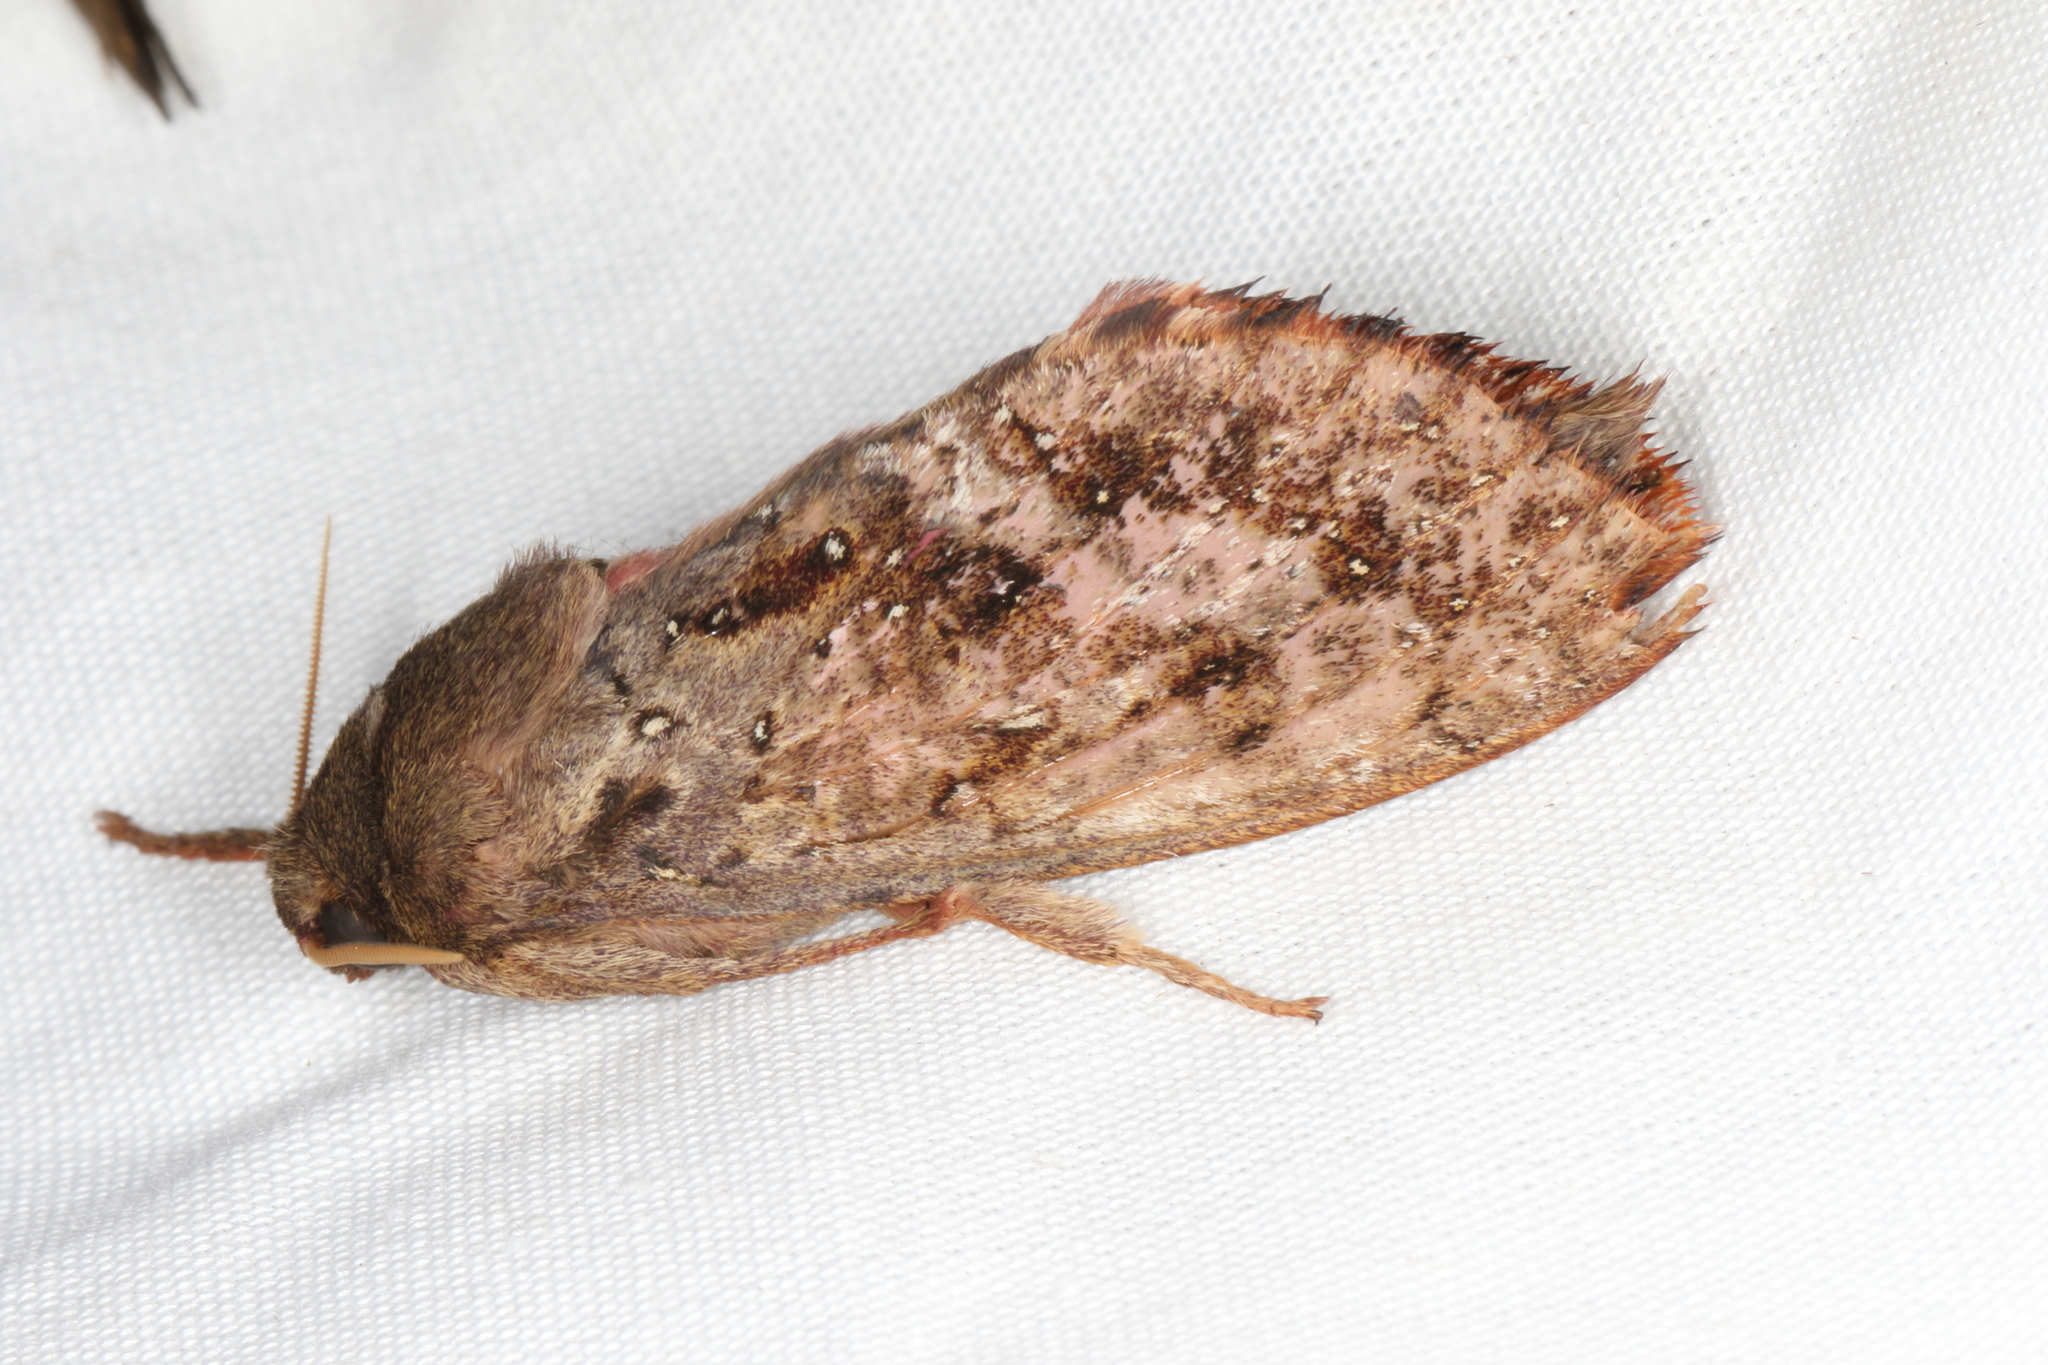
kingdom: Animalia
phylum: Arthropoda
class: Insecta
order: Lepidoptera
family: Hepialidae
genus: Dumbletonius
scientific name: Dumbletonius unimaculata
